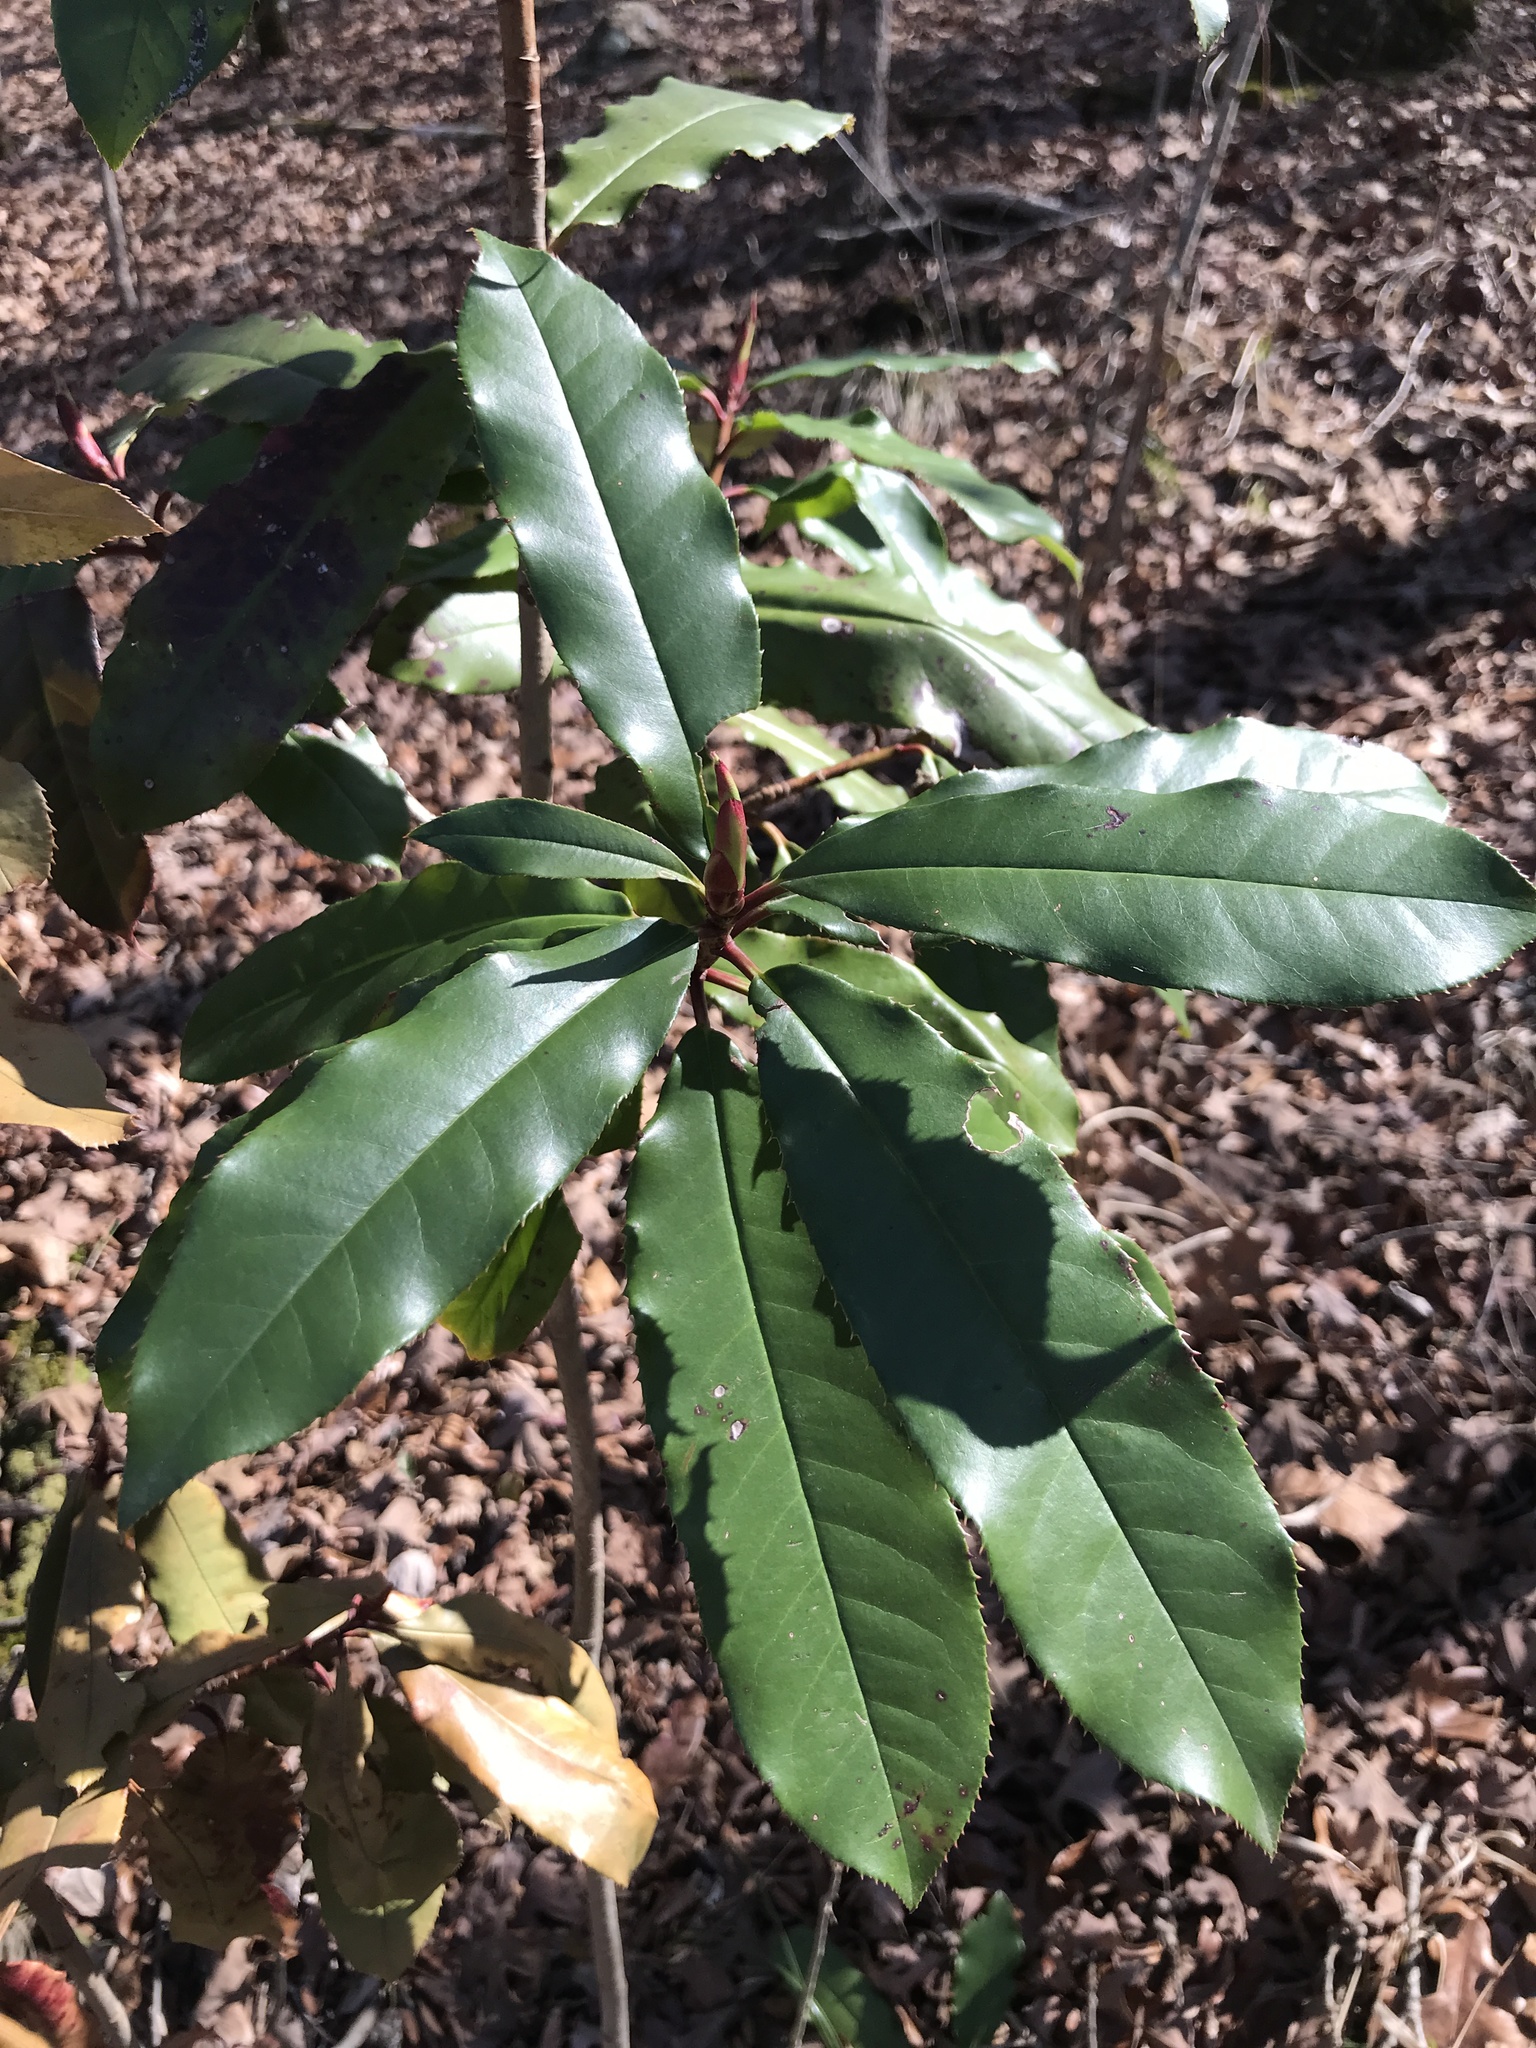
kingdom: Plantae
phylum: Tracheophyta
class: Magnoliopsida
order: Rosales
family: Rosaceae
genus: Photinia
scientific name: Photinia serratifolia
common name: Taiwanese photinia
